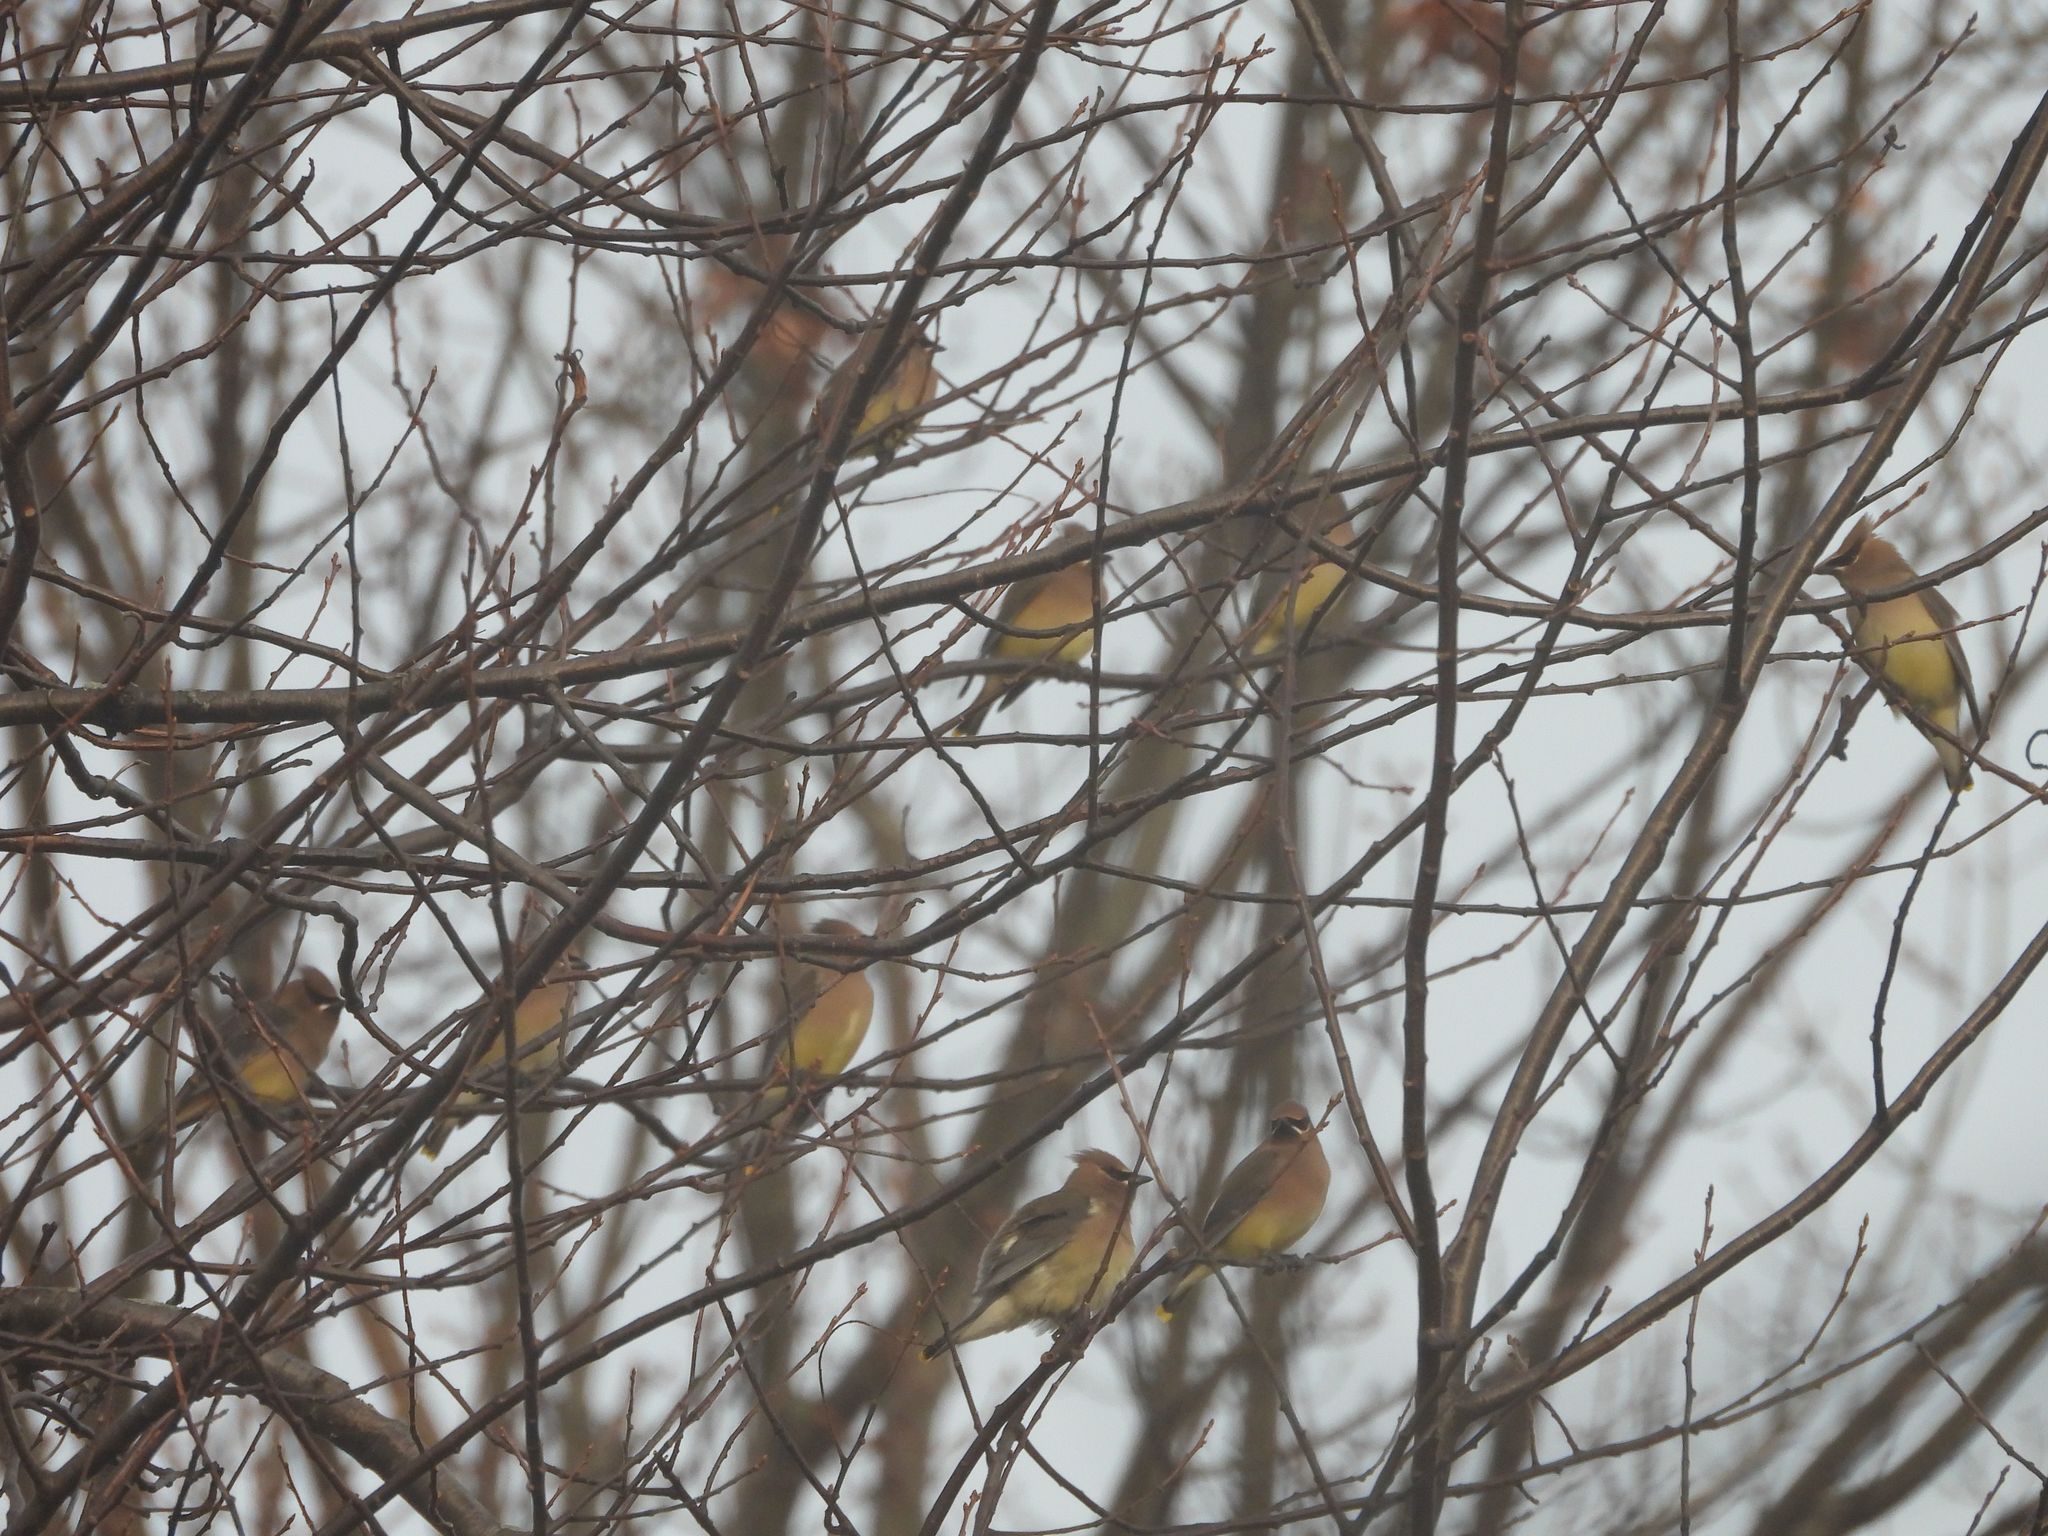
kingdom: Animalia
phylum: Chordata
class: Aves
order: Passeriformes
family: Bombycillidae
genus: Bombycilla
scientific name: Bombycilla cedrorum
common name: Cedar waxwing
